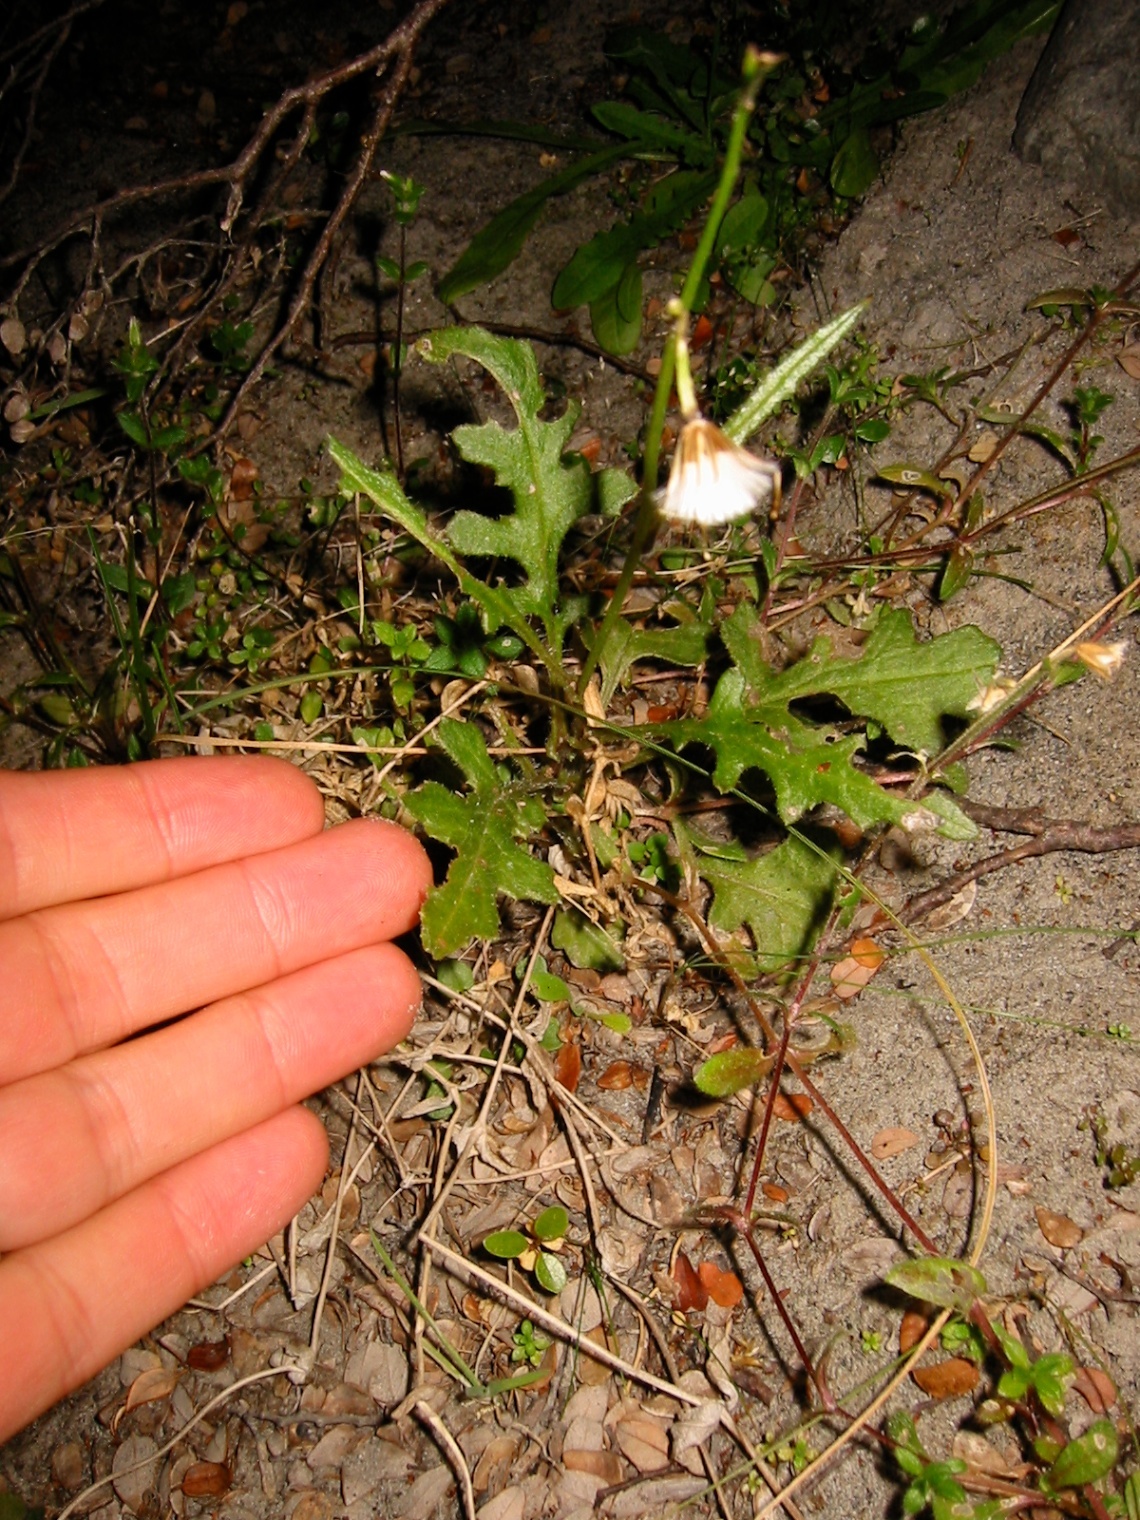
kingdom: Plantae
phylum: Tracheophyta
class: Magnoliopsida
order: Asterales
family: Asteraceae
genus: Senecio
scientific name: Senecio wairauensis
